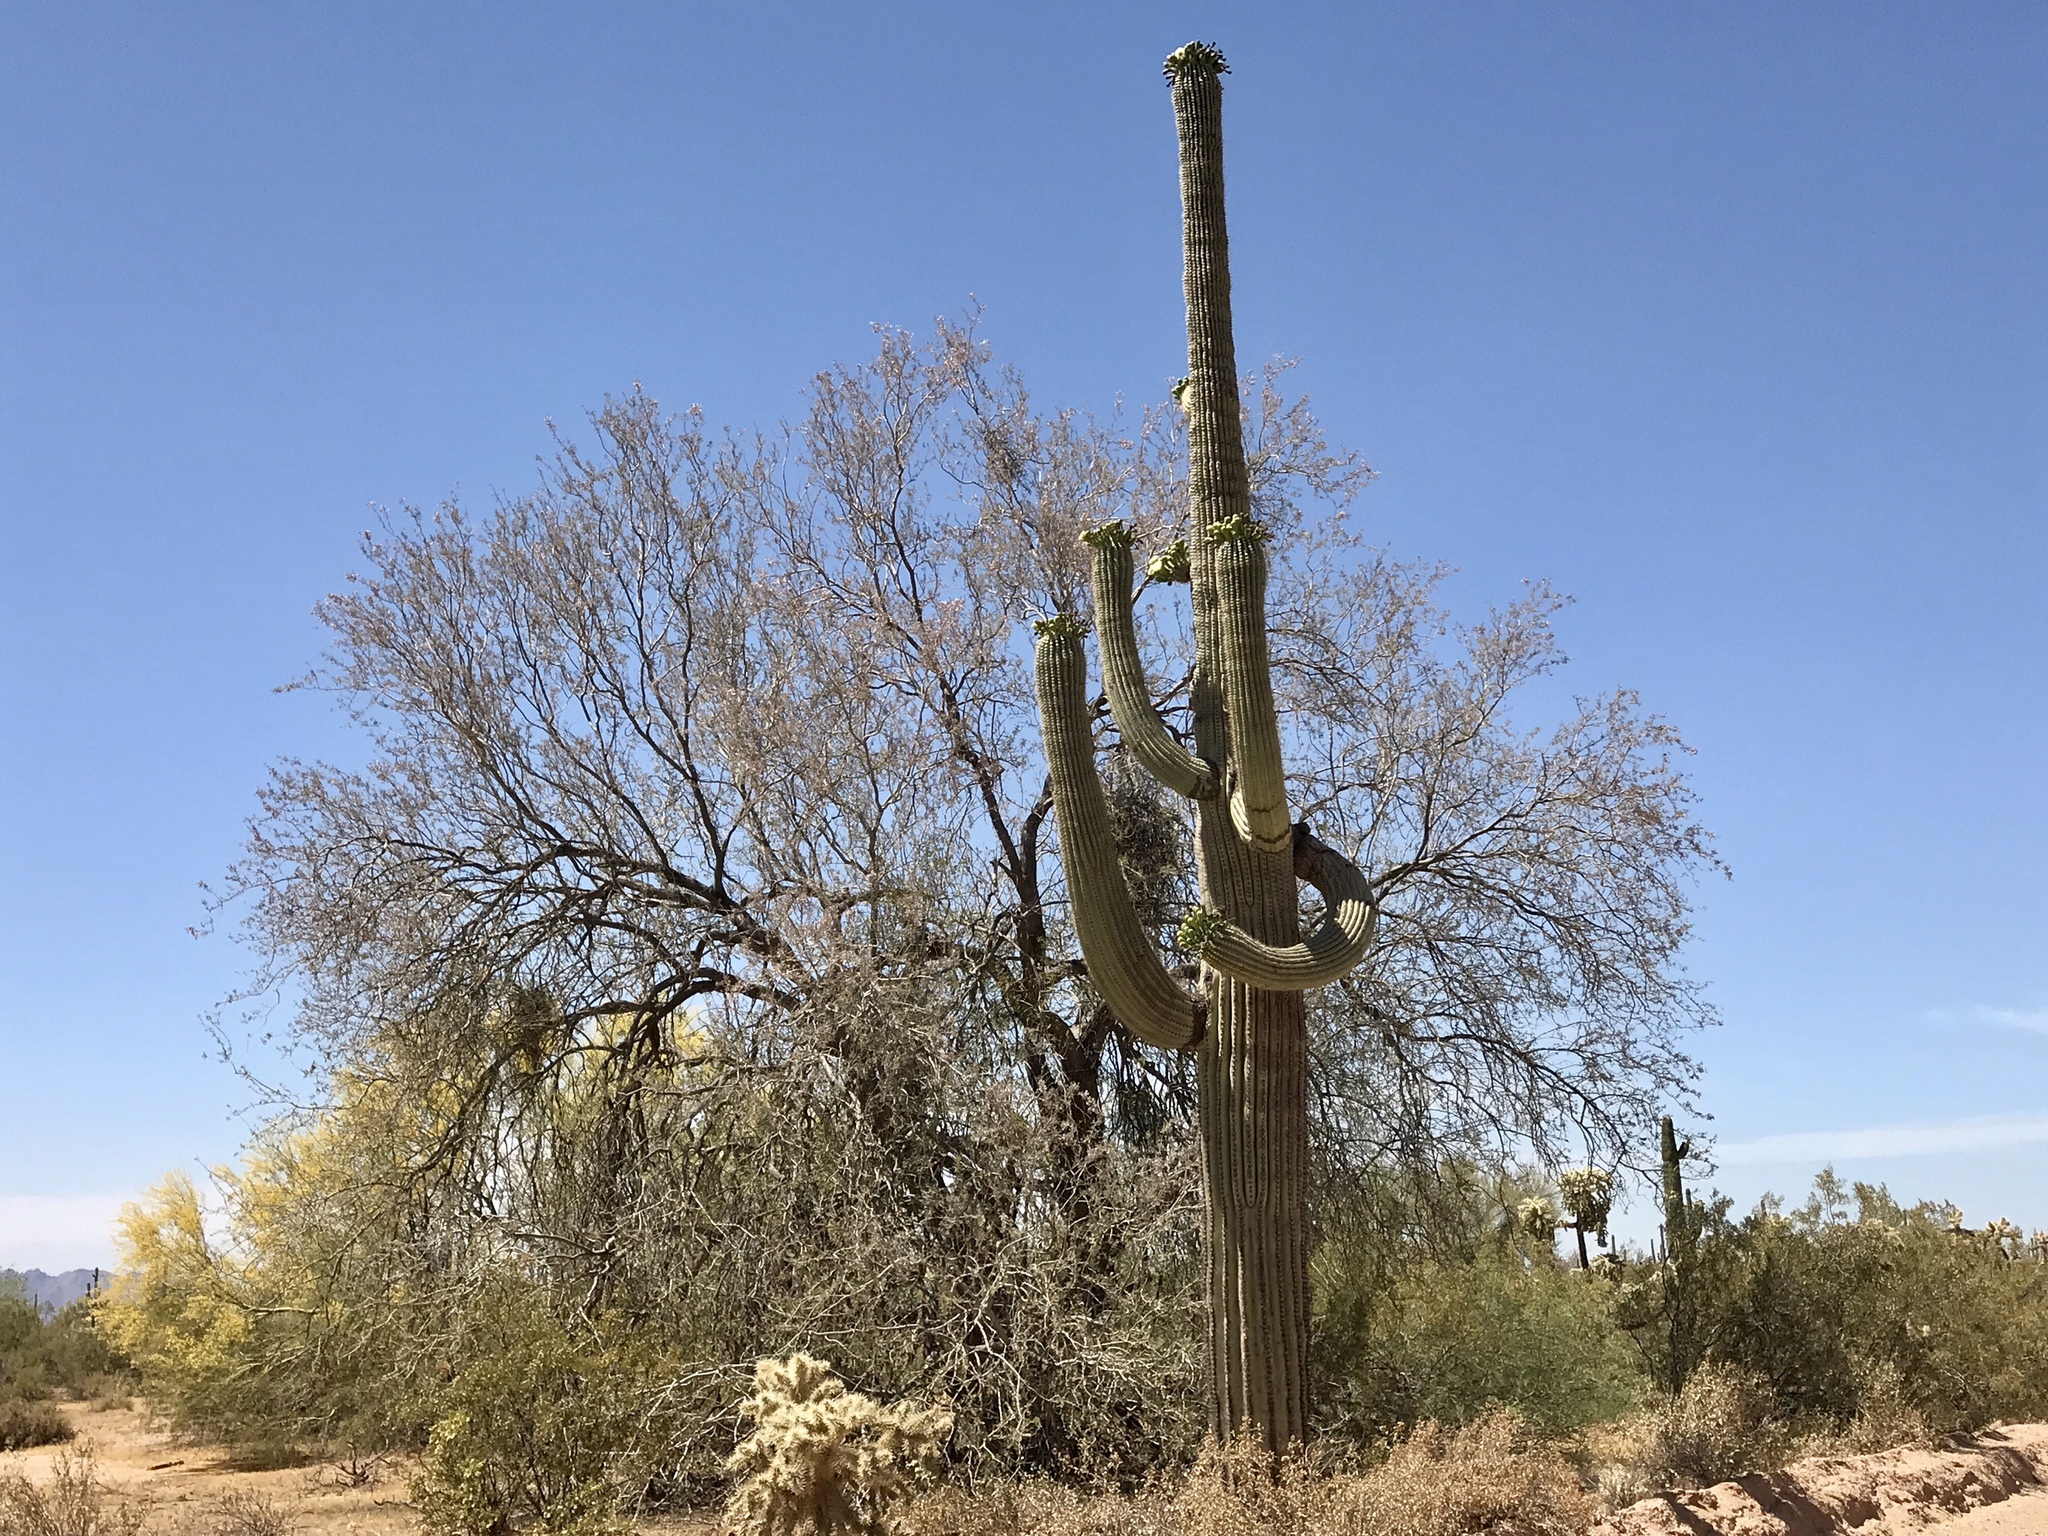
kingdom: Plantae
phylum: Tracheophyta
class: Magnoliopsida
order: Fabales
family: Fabaceae
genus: Olneya
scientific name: Olneya tesota
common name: Desert ironwood
